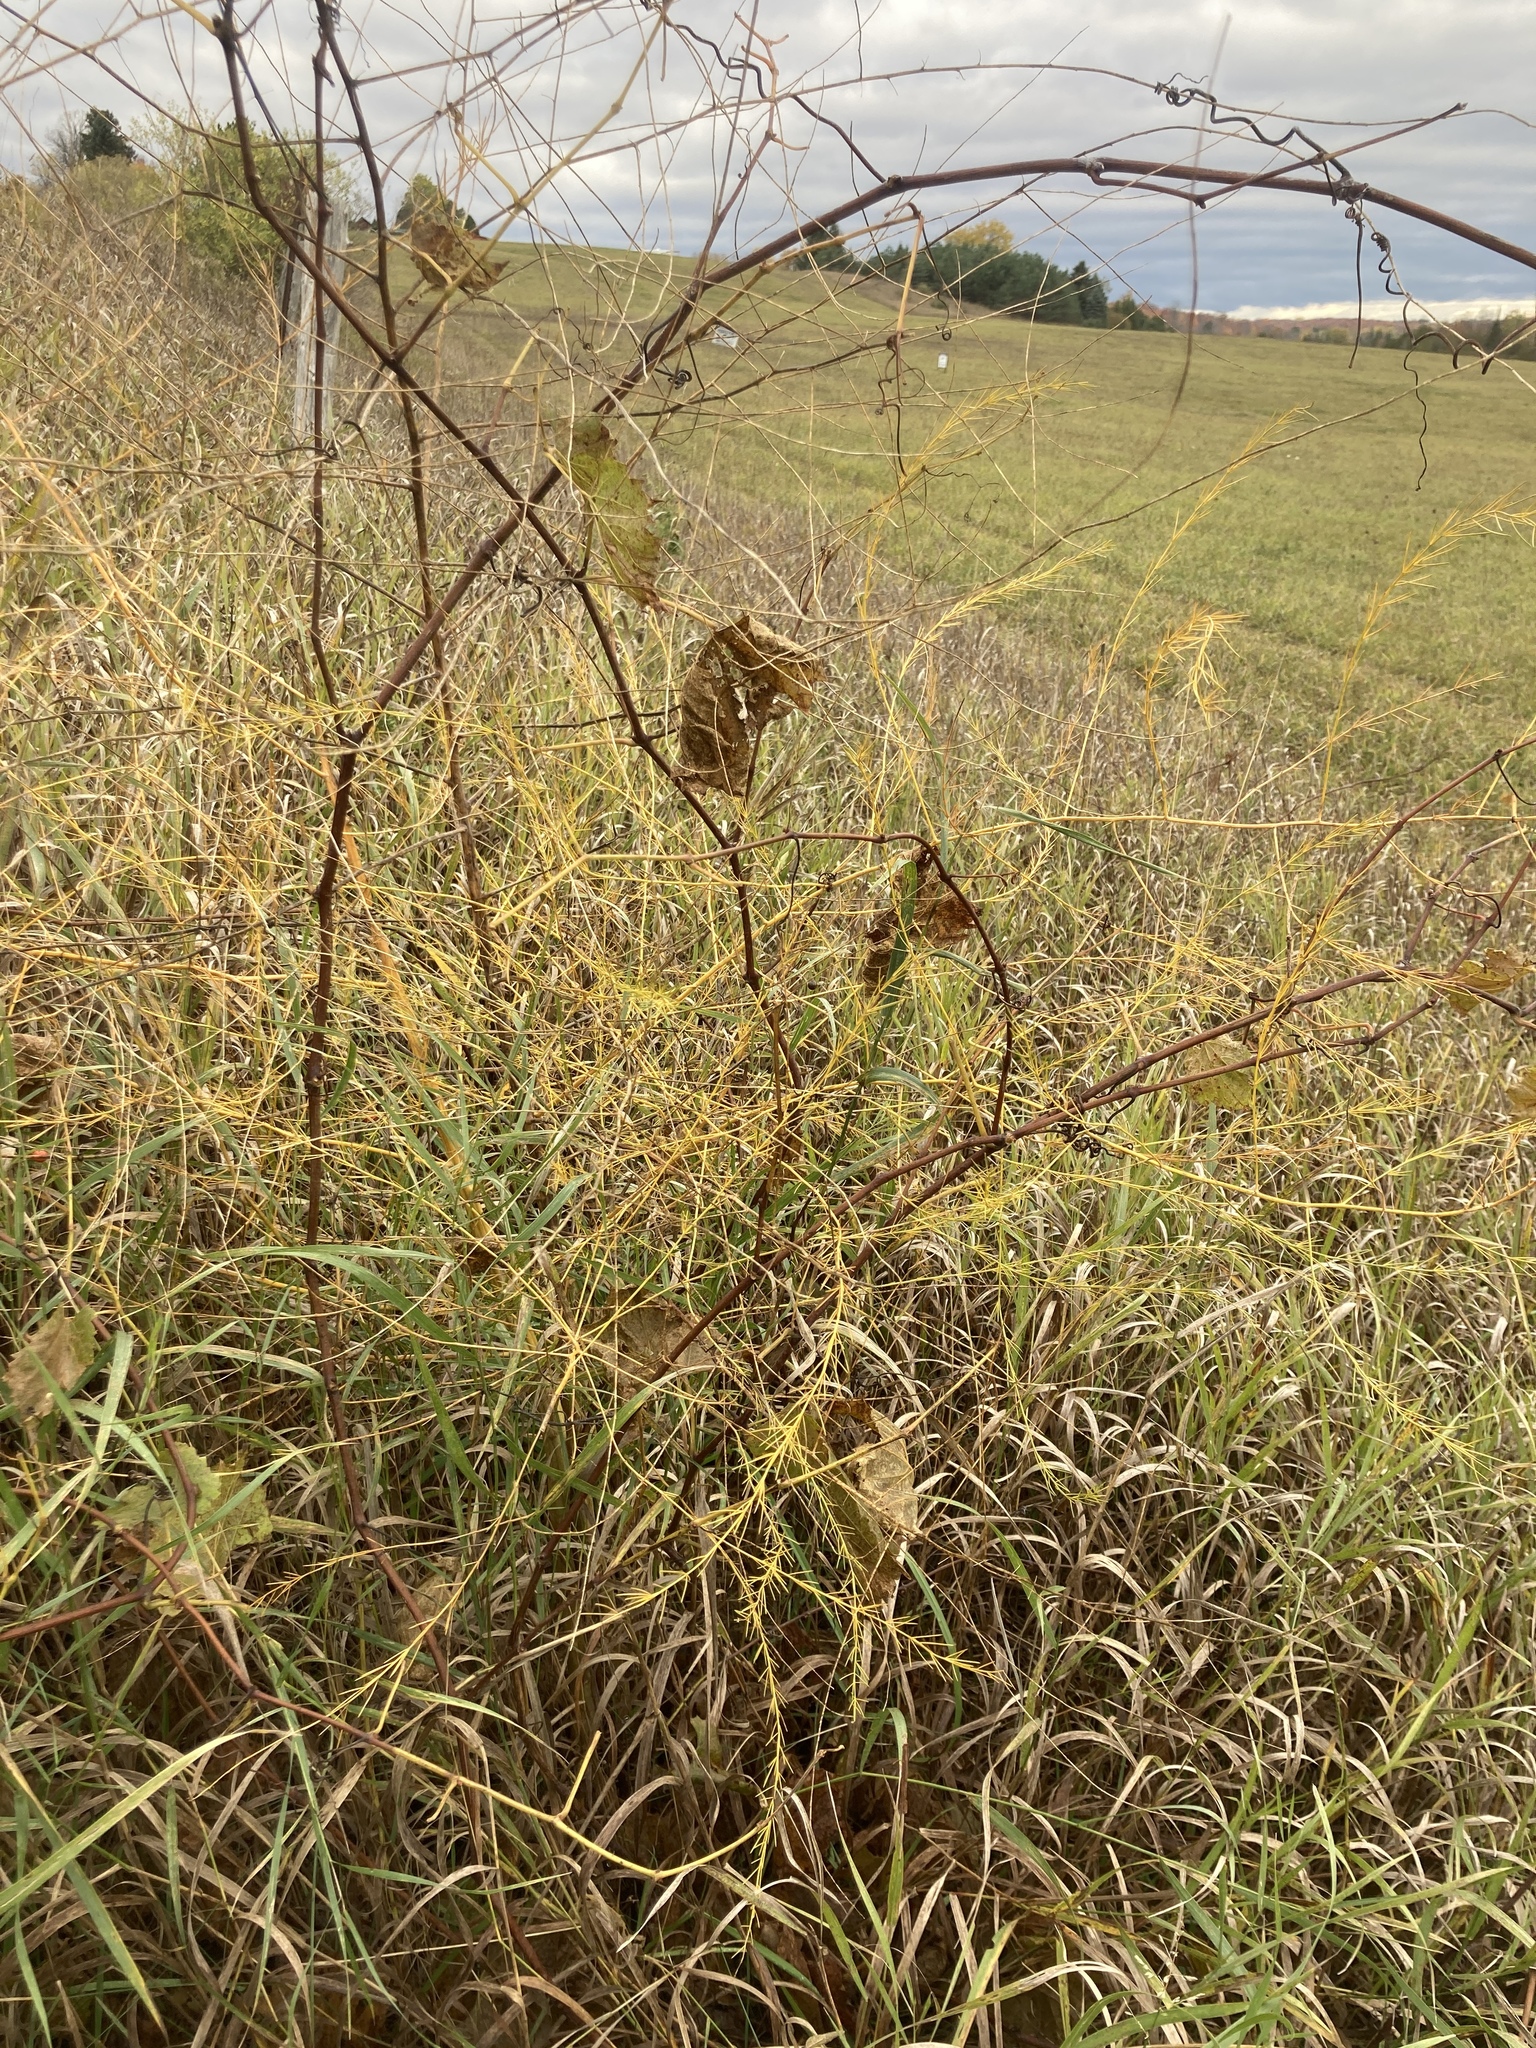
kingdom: Plantae
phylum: Tracheophyta
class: Liliopsida
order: Asparagales
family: Asparagaceae
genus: Asparagus
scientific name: Asparagus officinalis
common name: Garden asparagus
